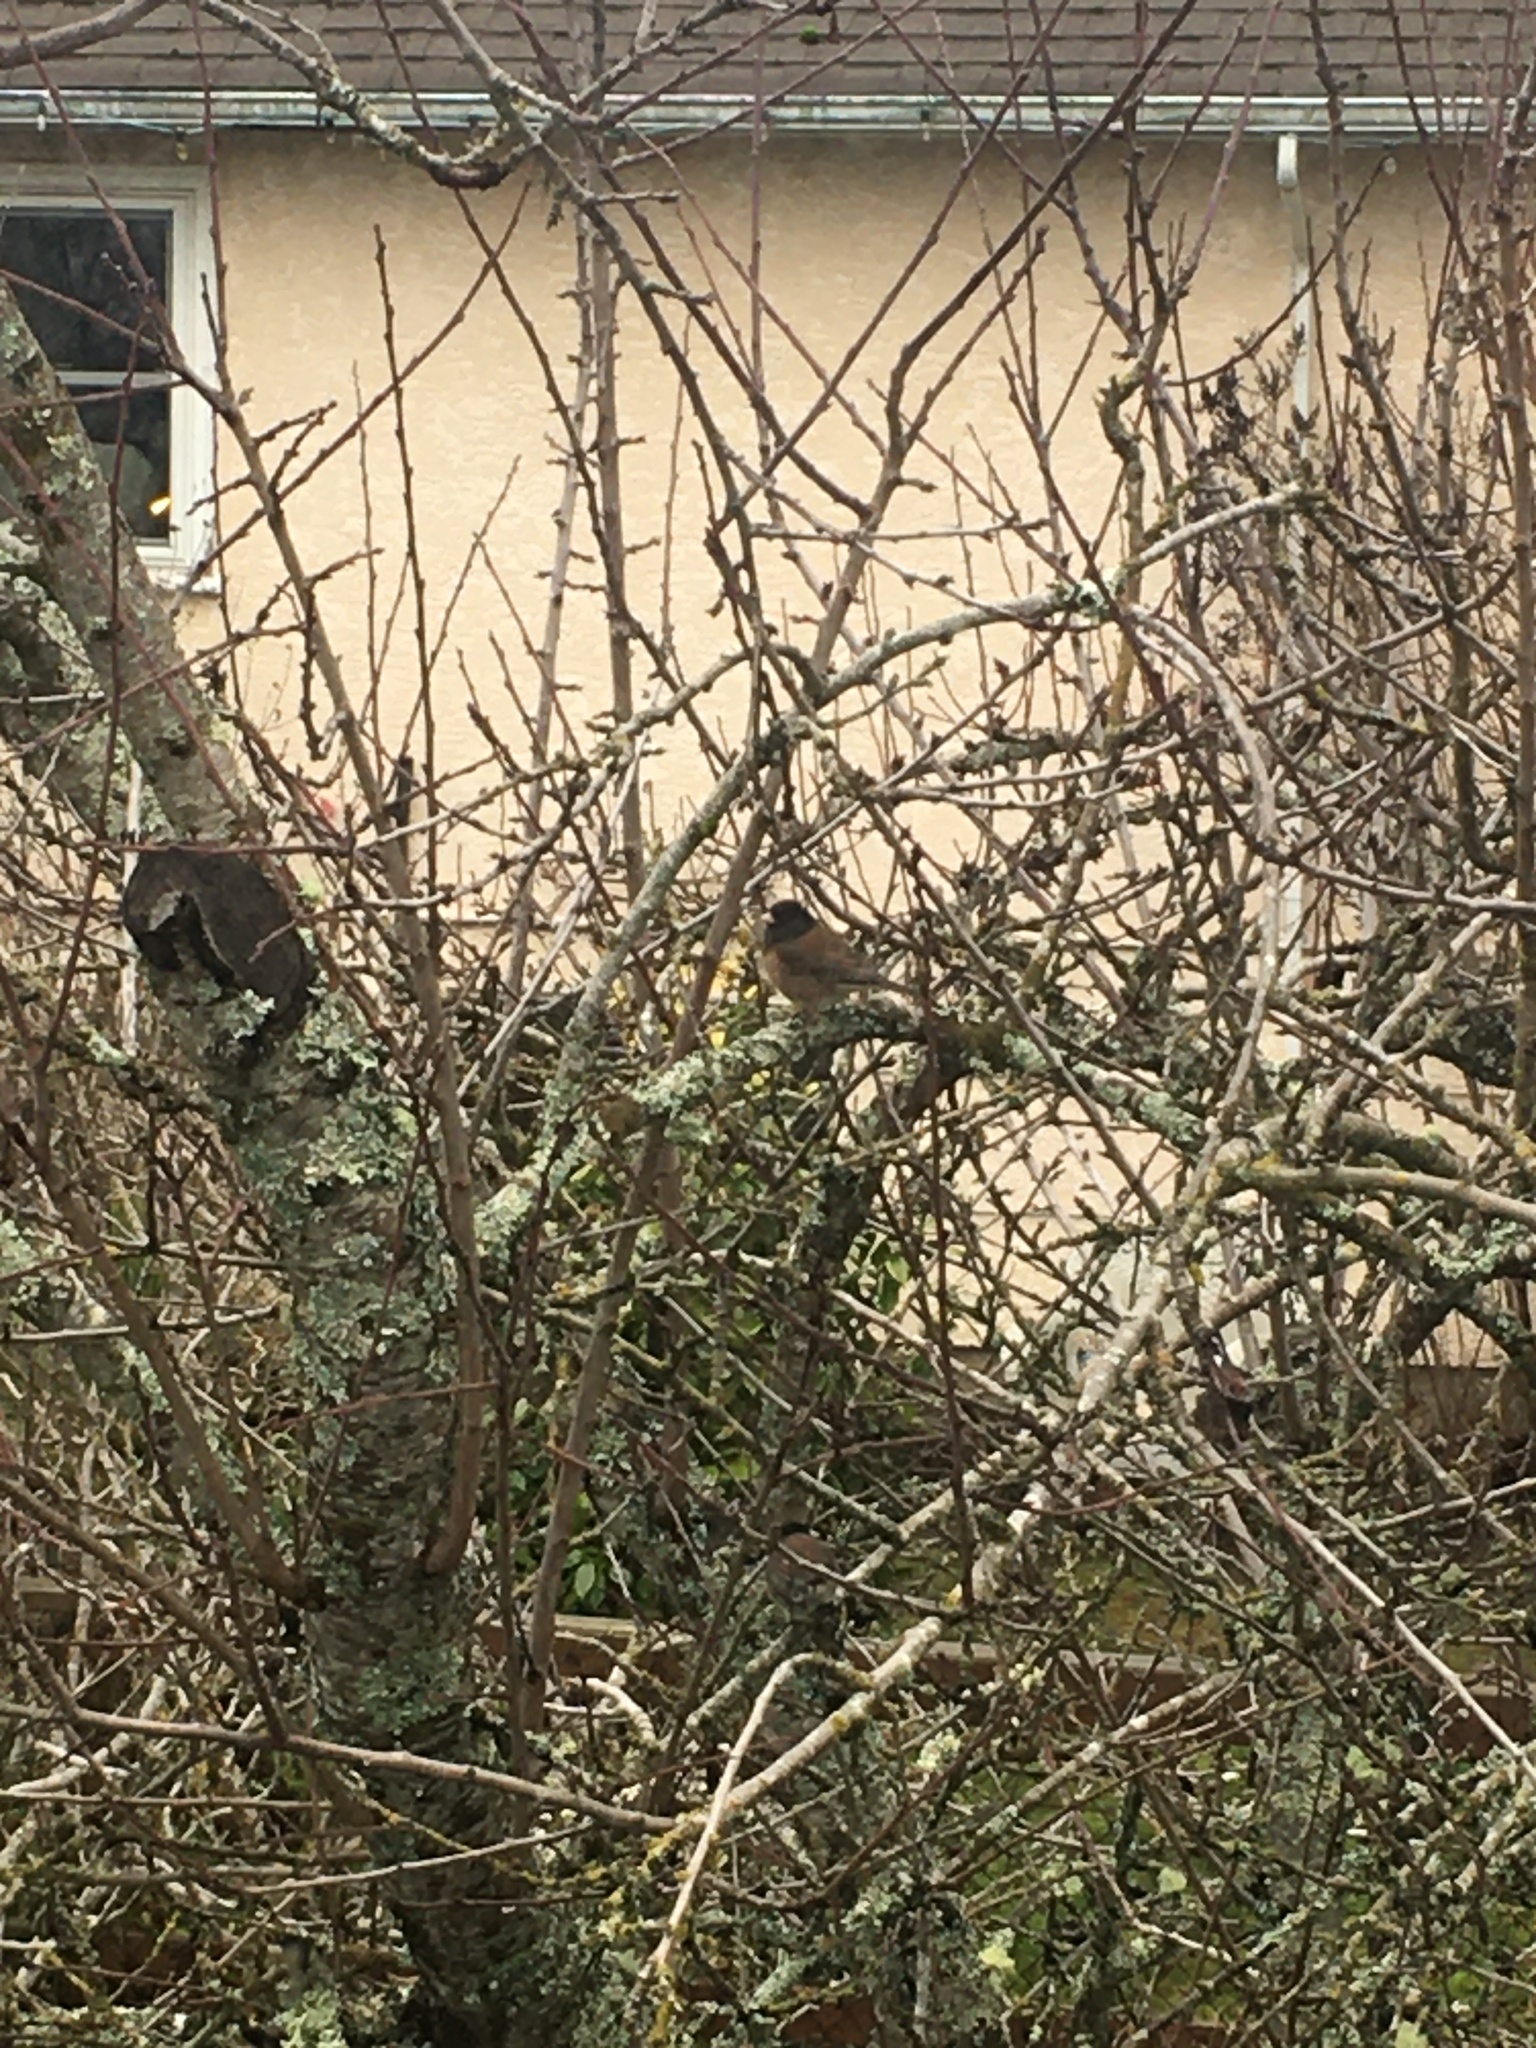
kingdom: Animalia
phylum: Chordata
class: Aves
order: Passeriformes
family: Passerellidae
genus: Junco
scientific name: Junco hyemalis
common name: Dark-eyed junco
